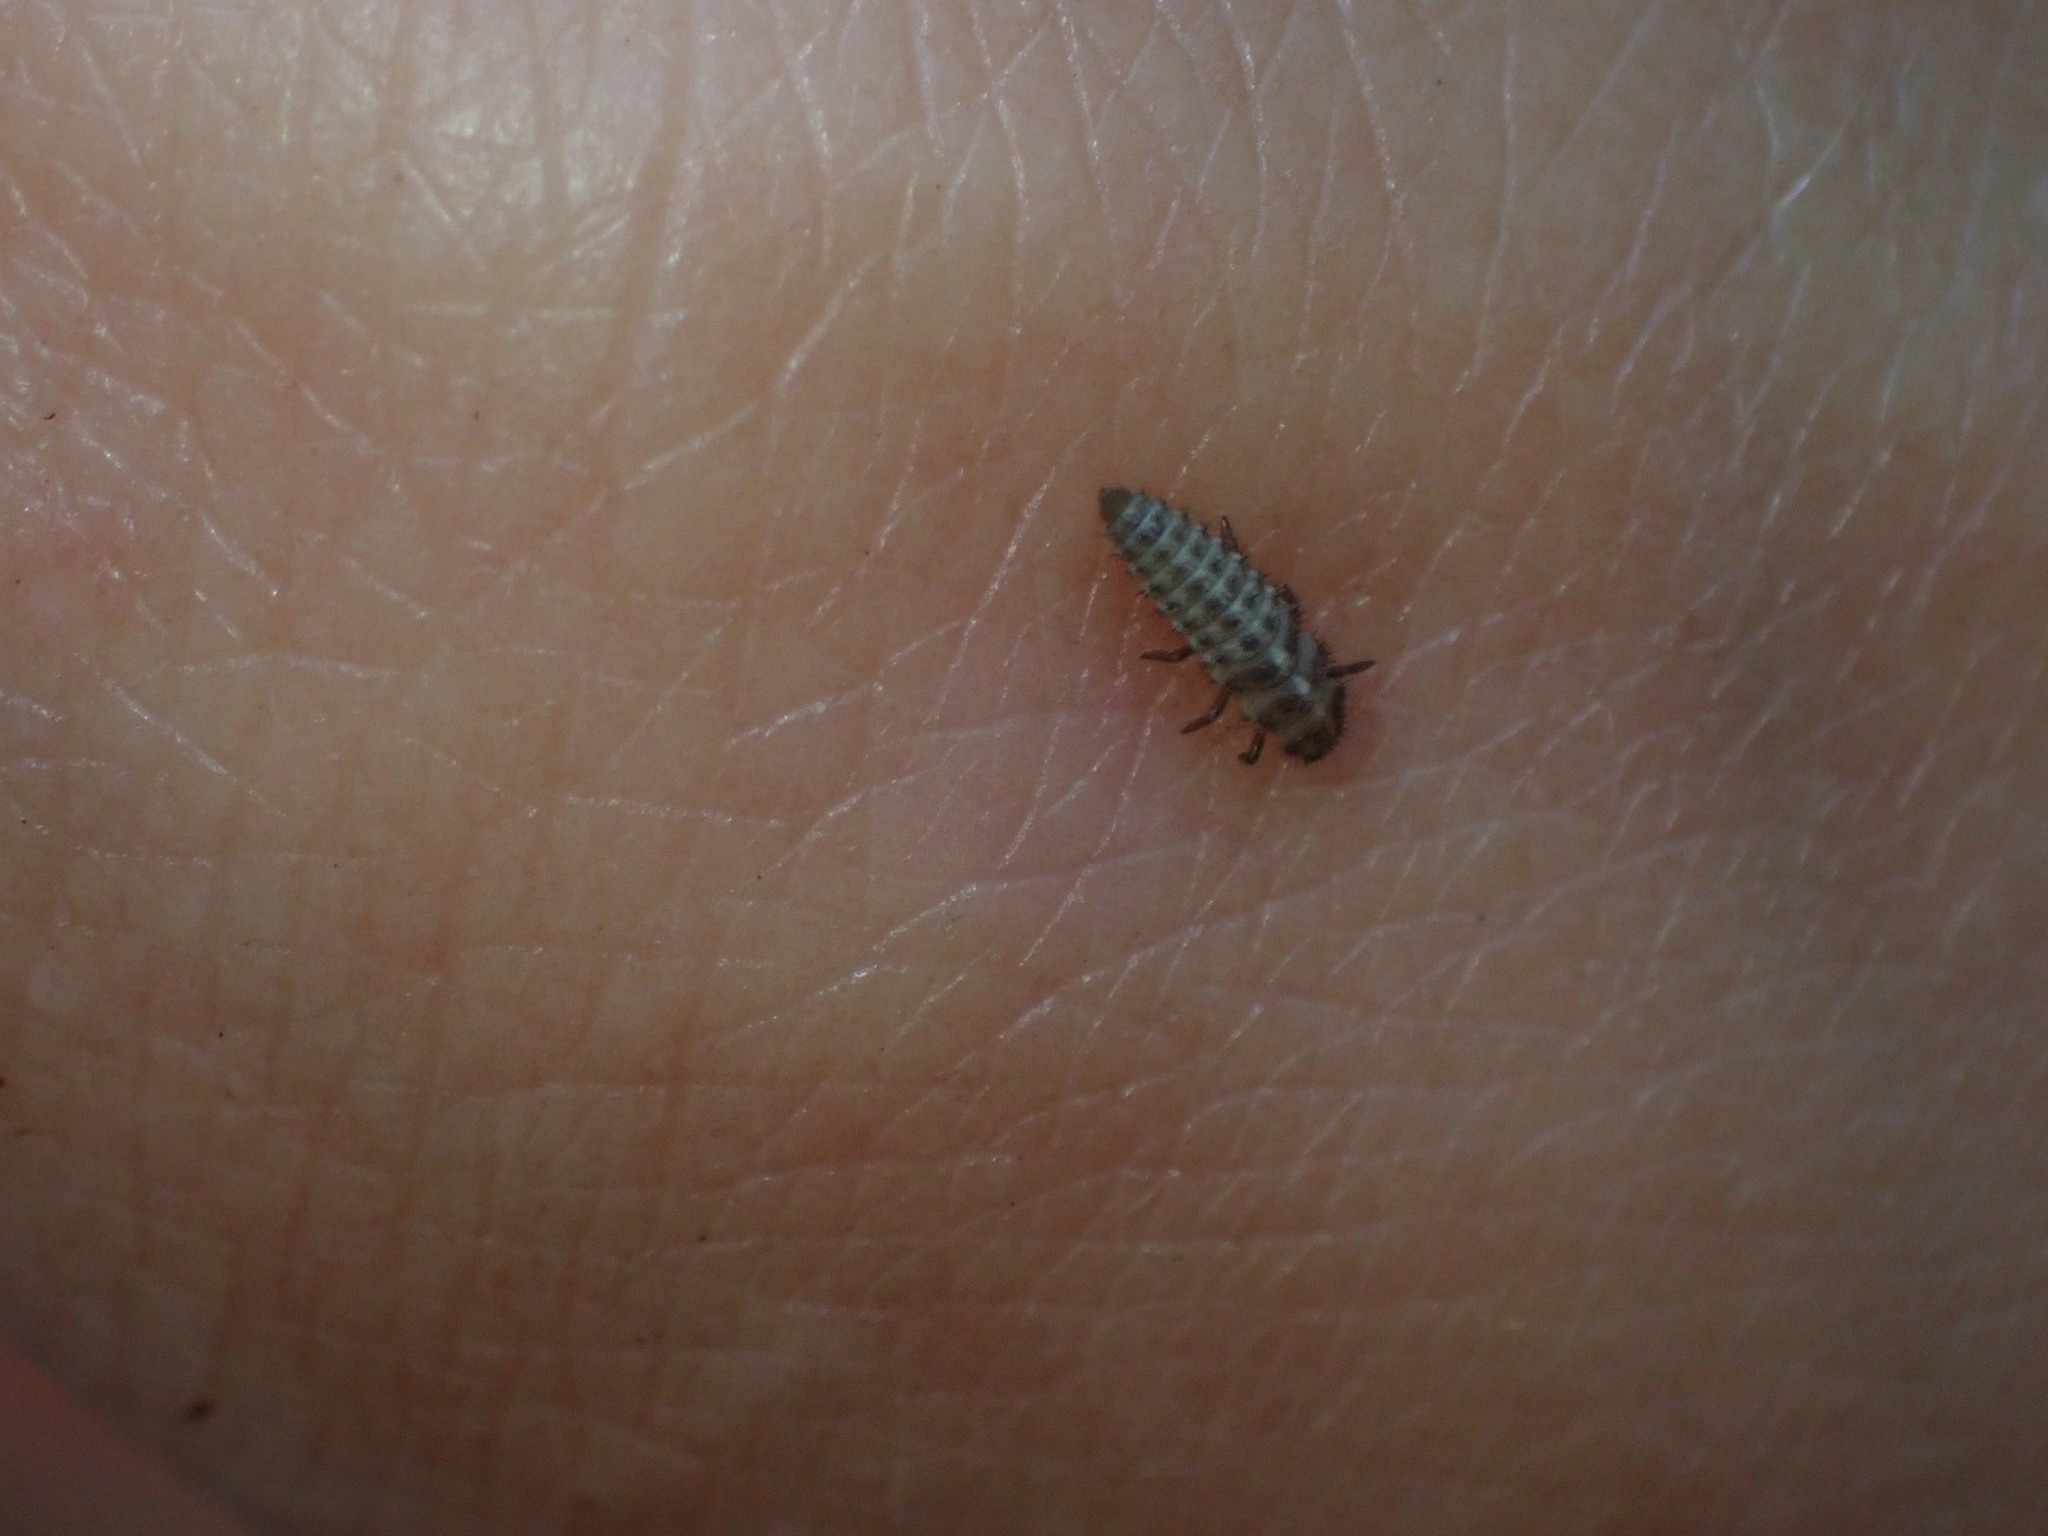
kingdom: Animalia
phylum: Arthropoda
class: Insecta
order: Coleoptera
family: Coccinellidae
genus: Tytthaspis
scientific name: Tytthaspis sedecimpunctata
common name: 16-spot ladybird
